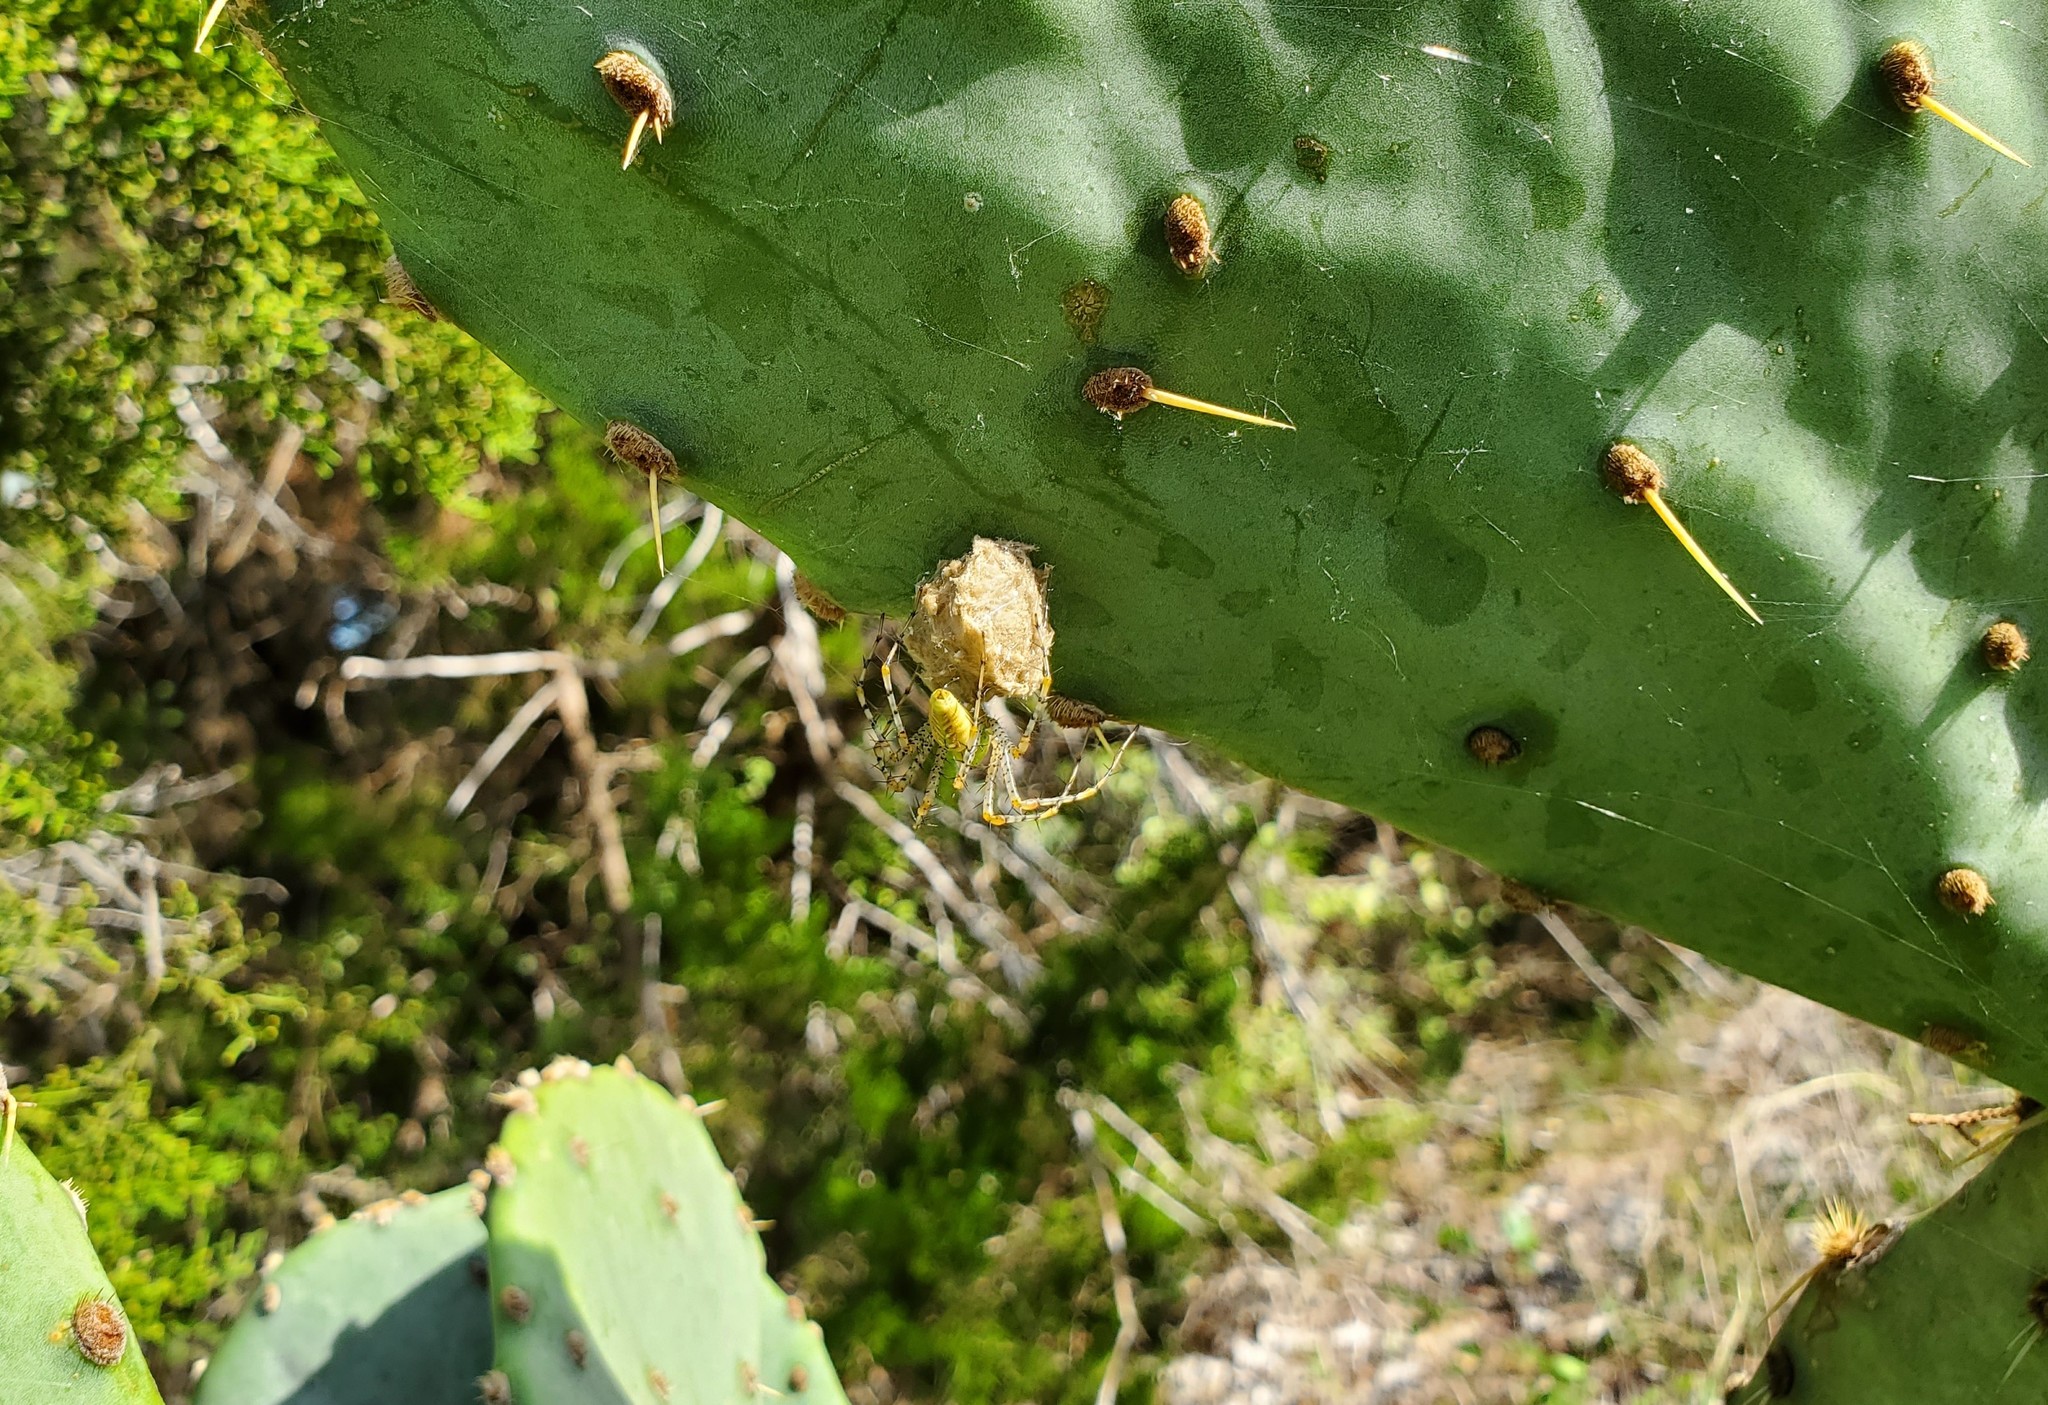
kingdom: Animalia
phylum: Arthropoda
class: Arachnida
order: Araneae
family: Oxyopidae
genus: Peucetia
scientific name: Peucetia viridans
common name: Lynx spiders
